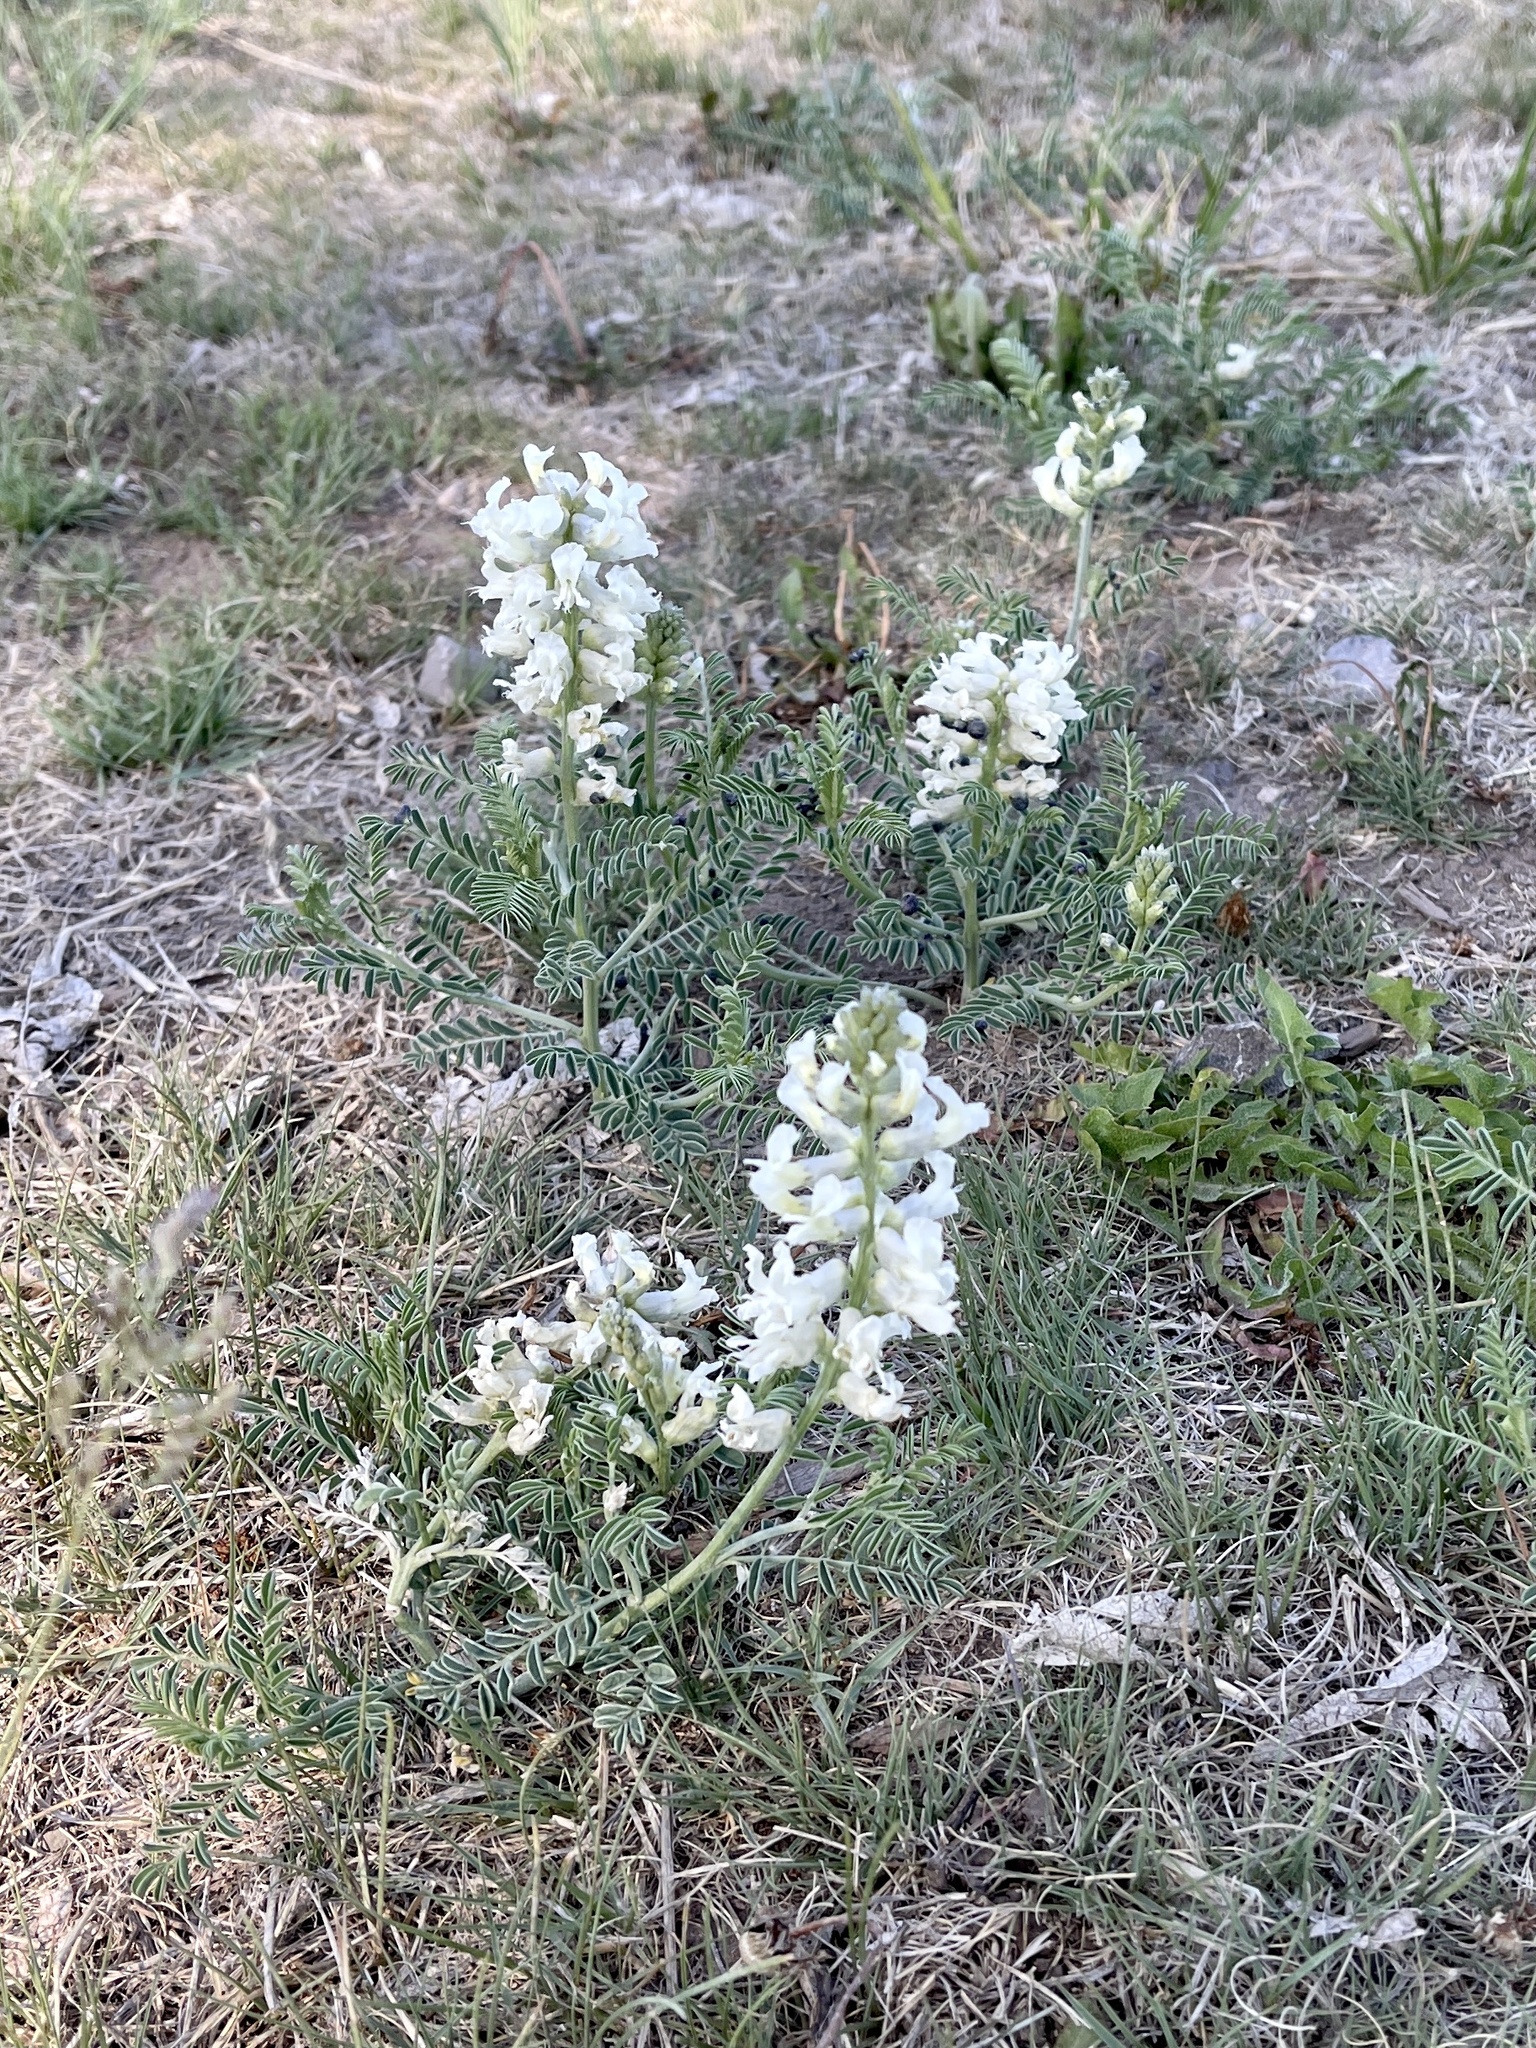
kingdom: Plantae
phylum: Tracheophyta
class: Magnoliopsida
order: Fabales
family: Fabaceae
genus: Sophora
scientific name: Sophora nuttalliana
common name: Silky sophora
